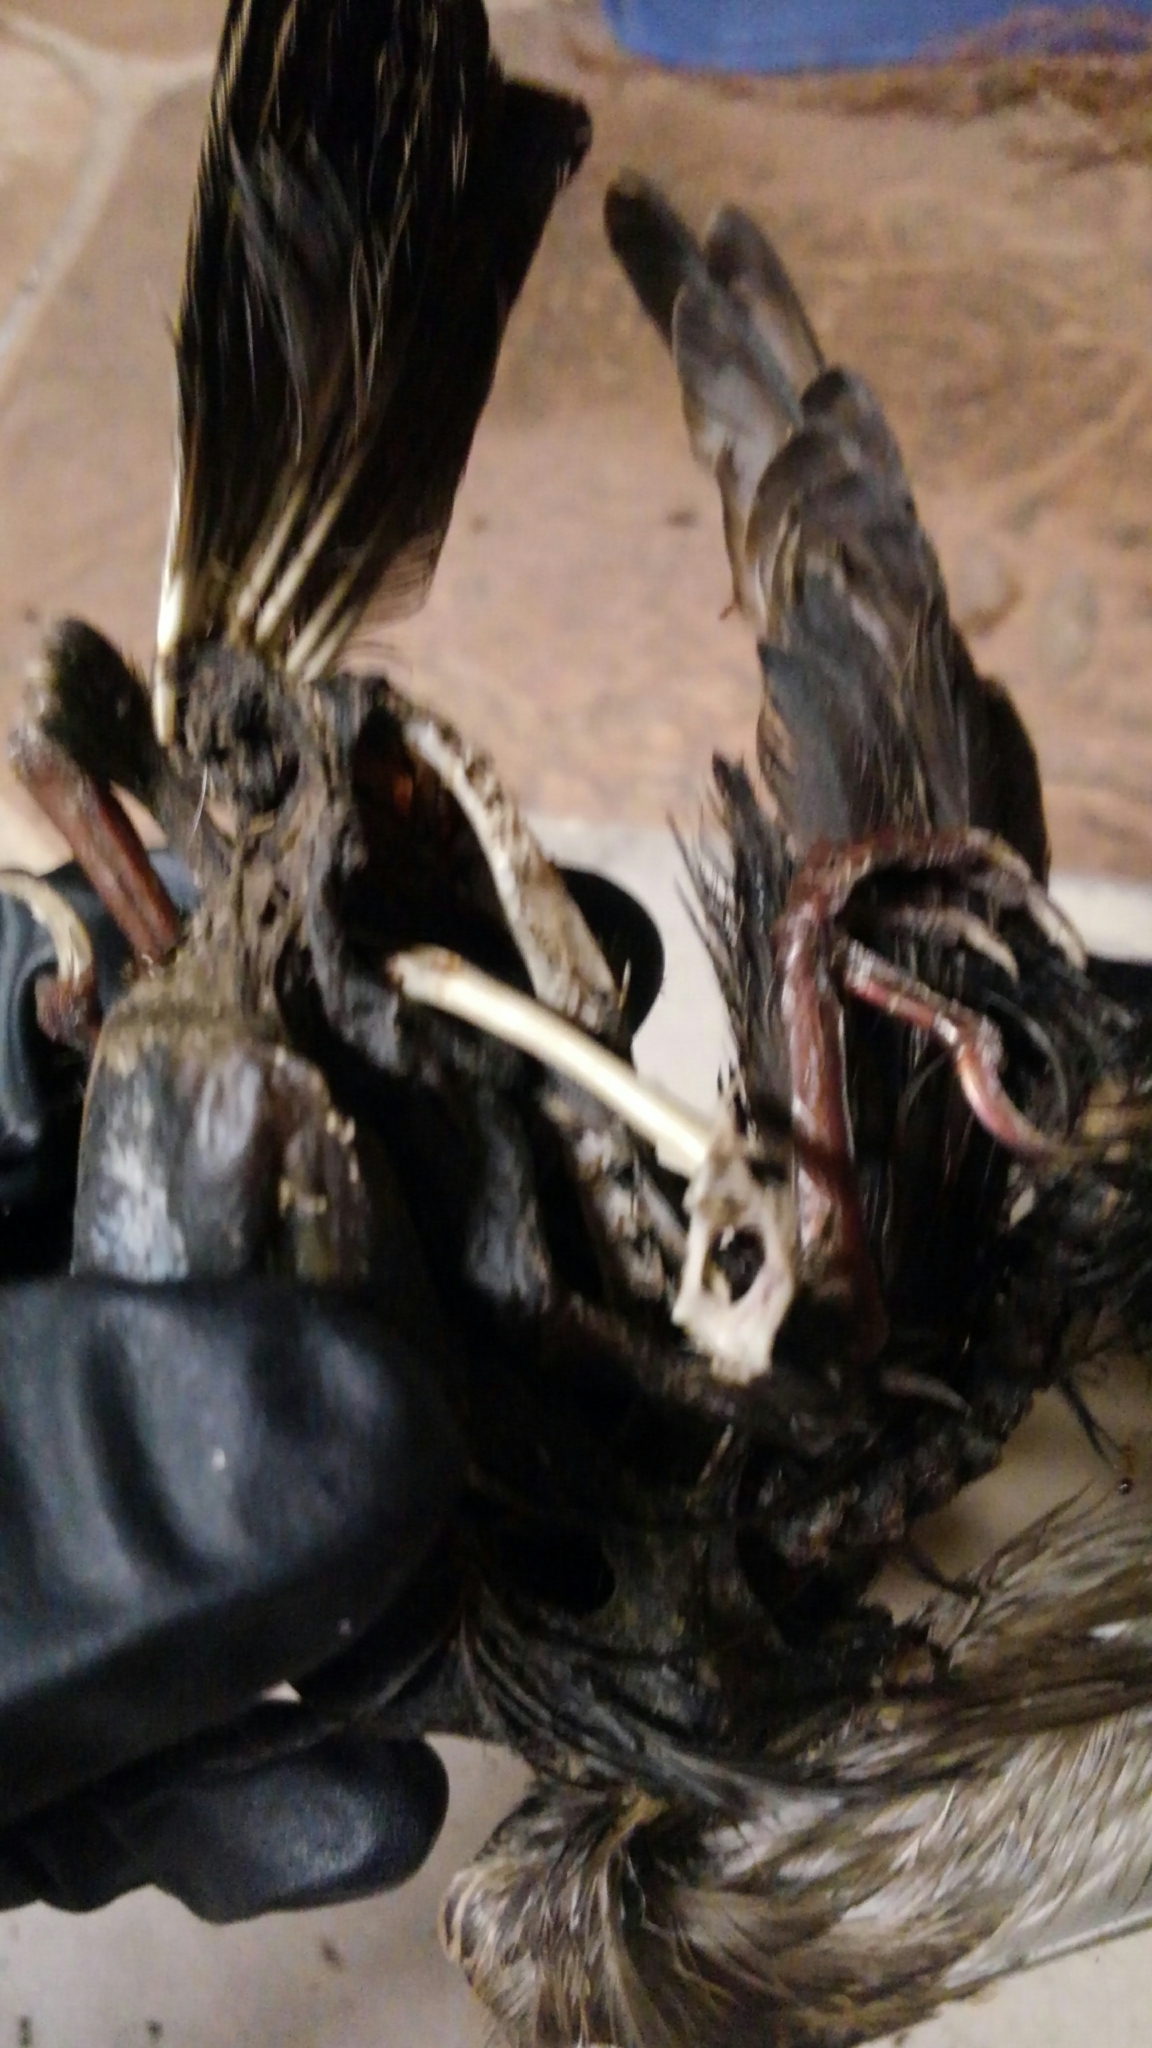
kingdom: Animalia
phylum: Chordata
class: Aves
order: Passeriformes
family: Sturnidae
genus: Sturnus
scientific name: Sturnus vulgaris
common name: Common starling
